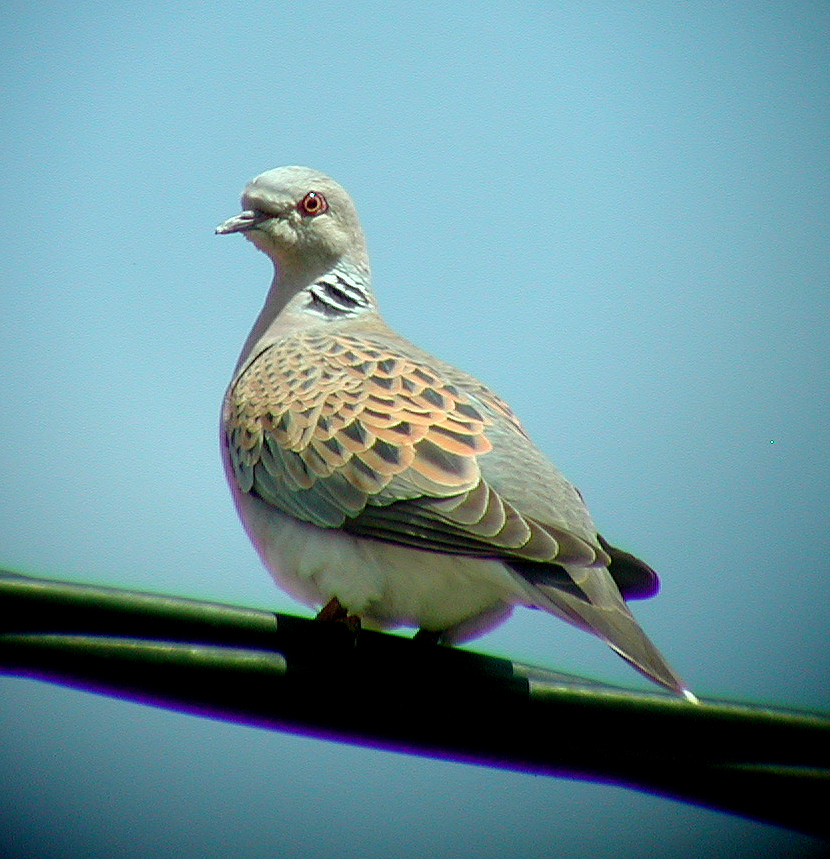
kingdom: Animalia
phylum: Chordata
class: Aves
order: Columbiformes
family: Columbidae
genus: Streptopelia
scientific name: Streptopelia turtur
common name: European turtle dove
